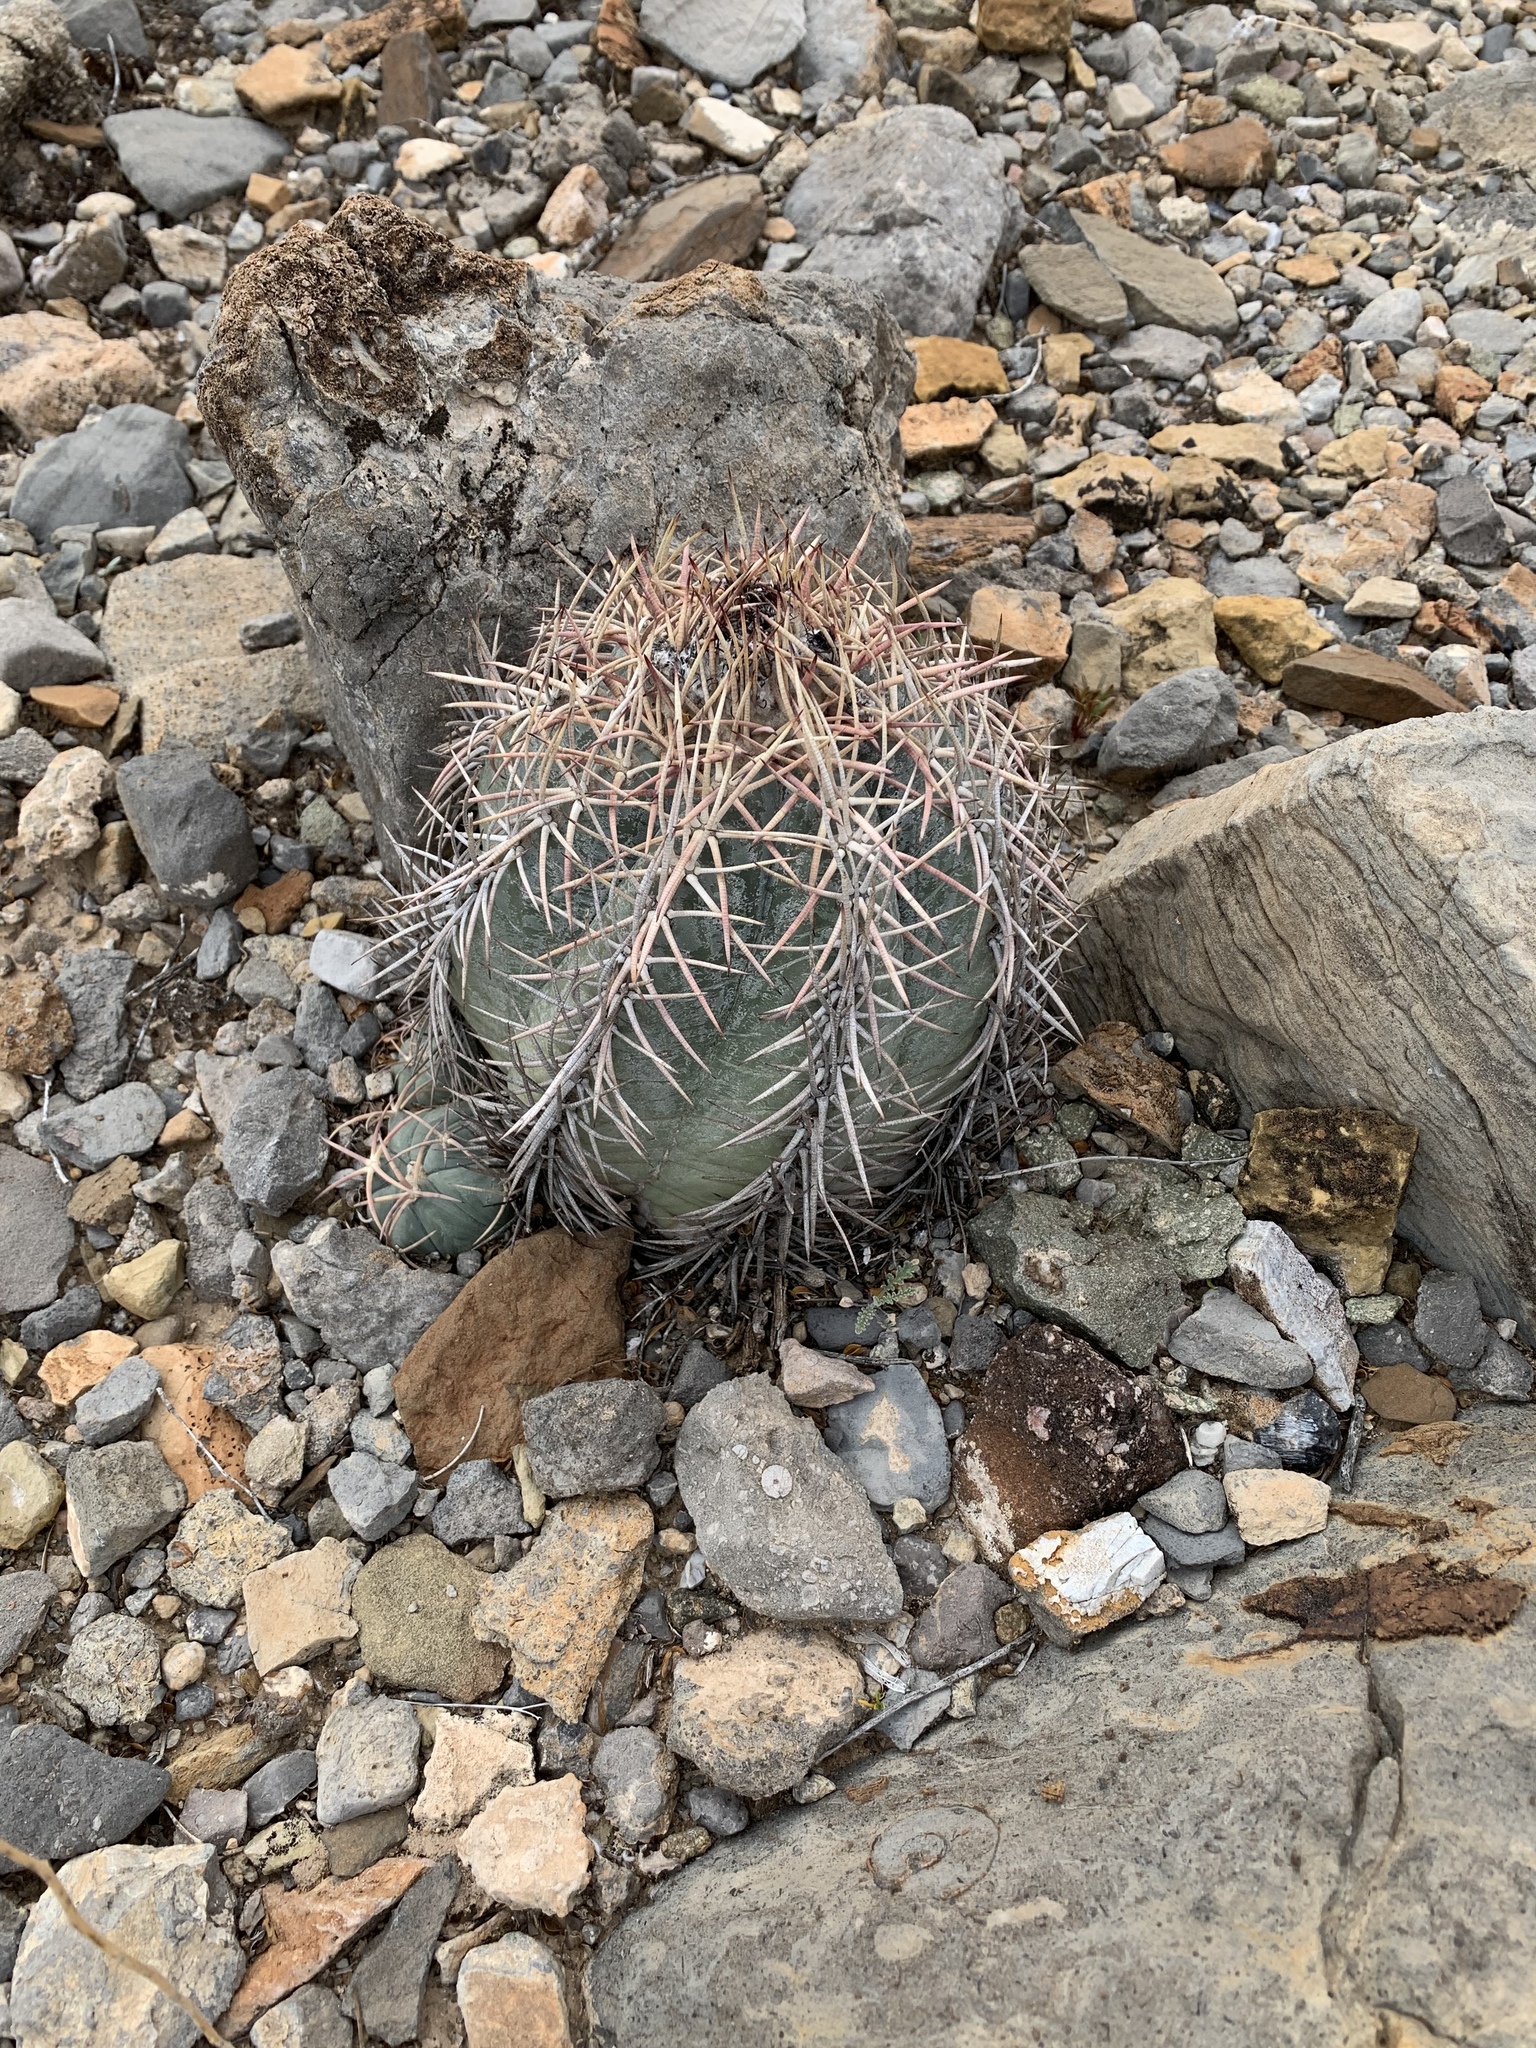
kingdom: Plantae
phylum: Tracheophyta
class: Magnoliopsida
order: Caryophyllales
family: Cactaceae
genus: Echinocactus
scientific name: Echinocactus horizonthalonius
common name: Devilshead
